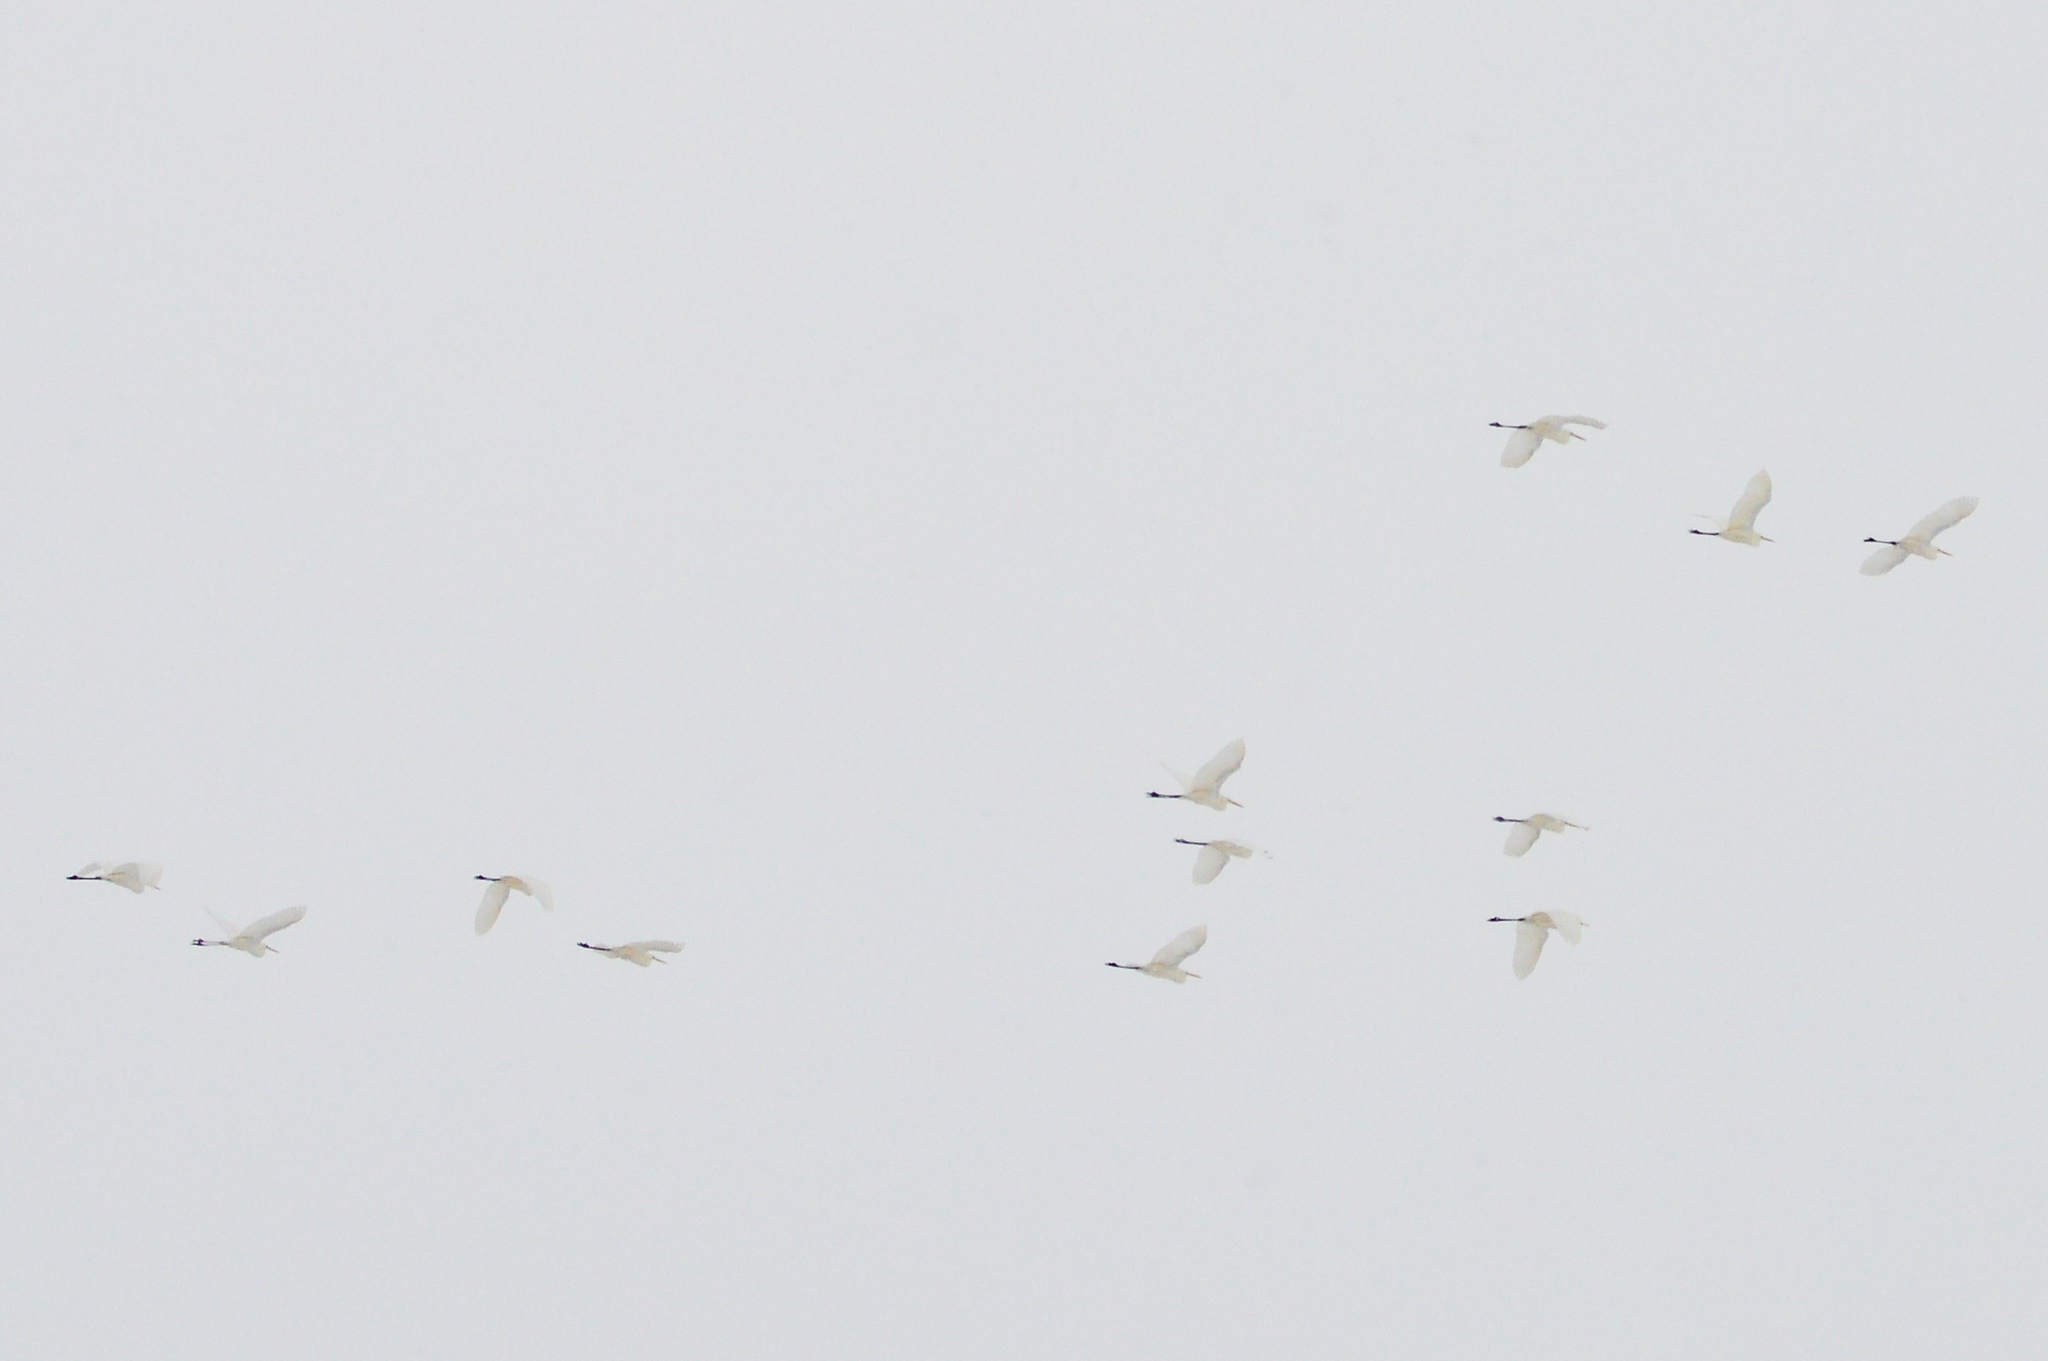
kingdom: Animalia
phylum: Chordata
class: Aves
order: Pelecaniformes
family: Ardeidae
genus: Ardea
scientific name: Ardea alba
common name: Great egret
